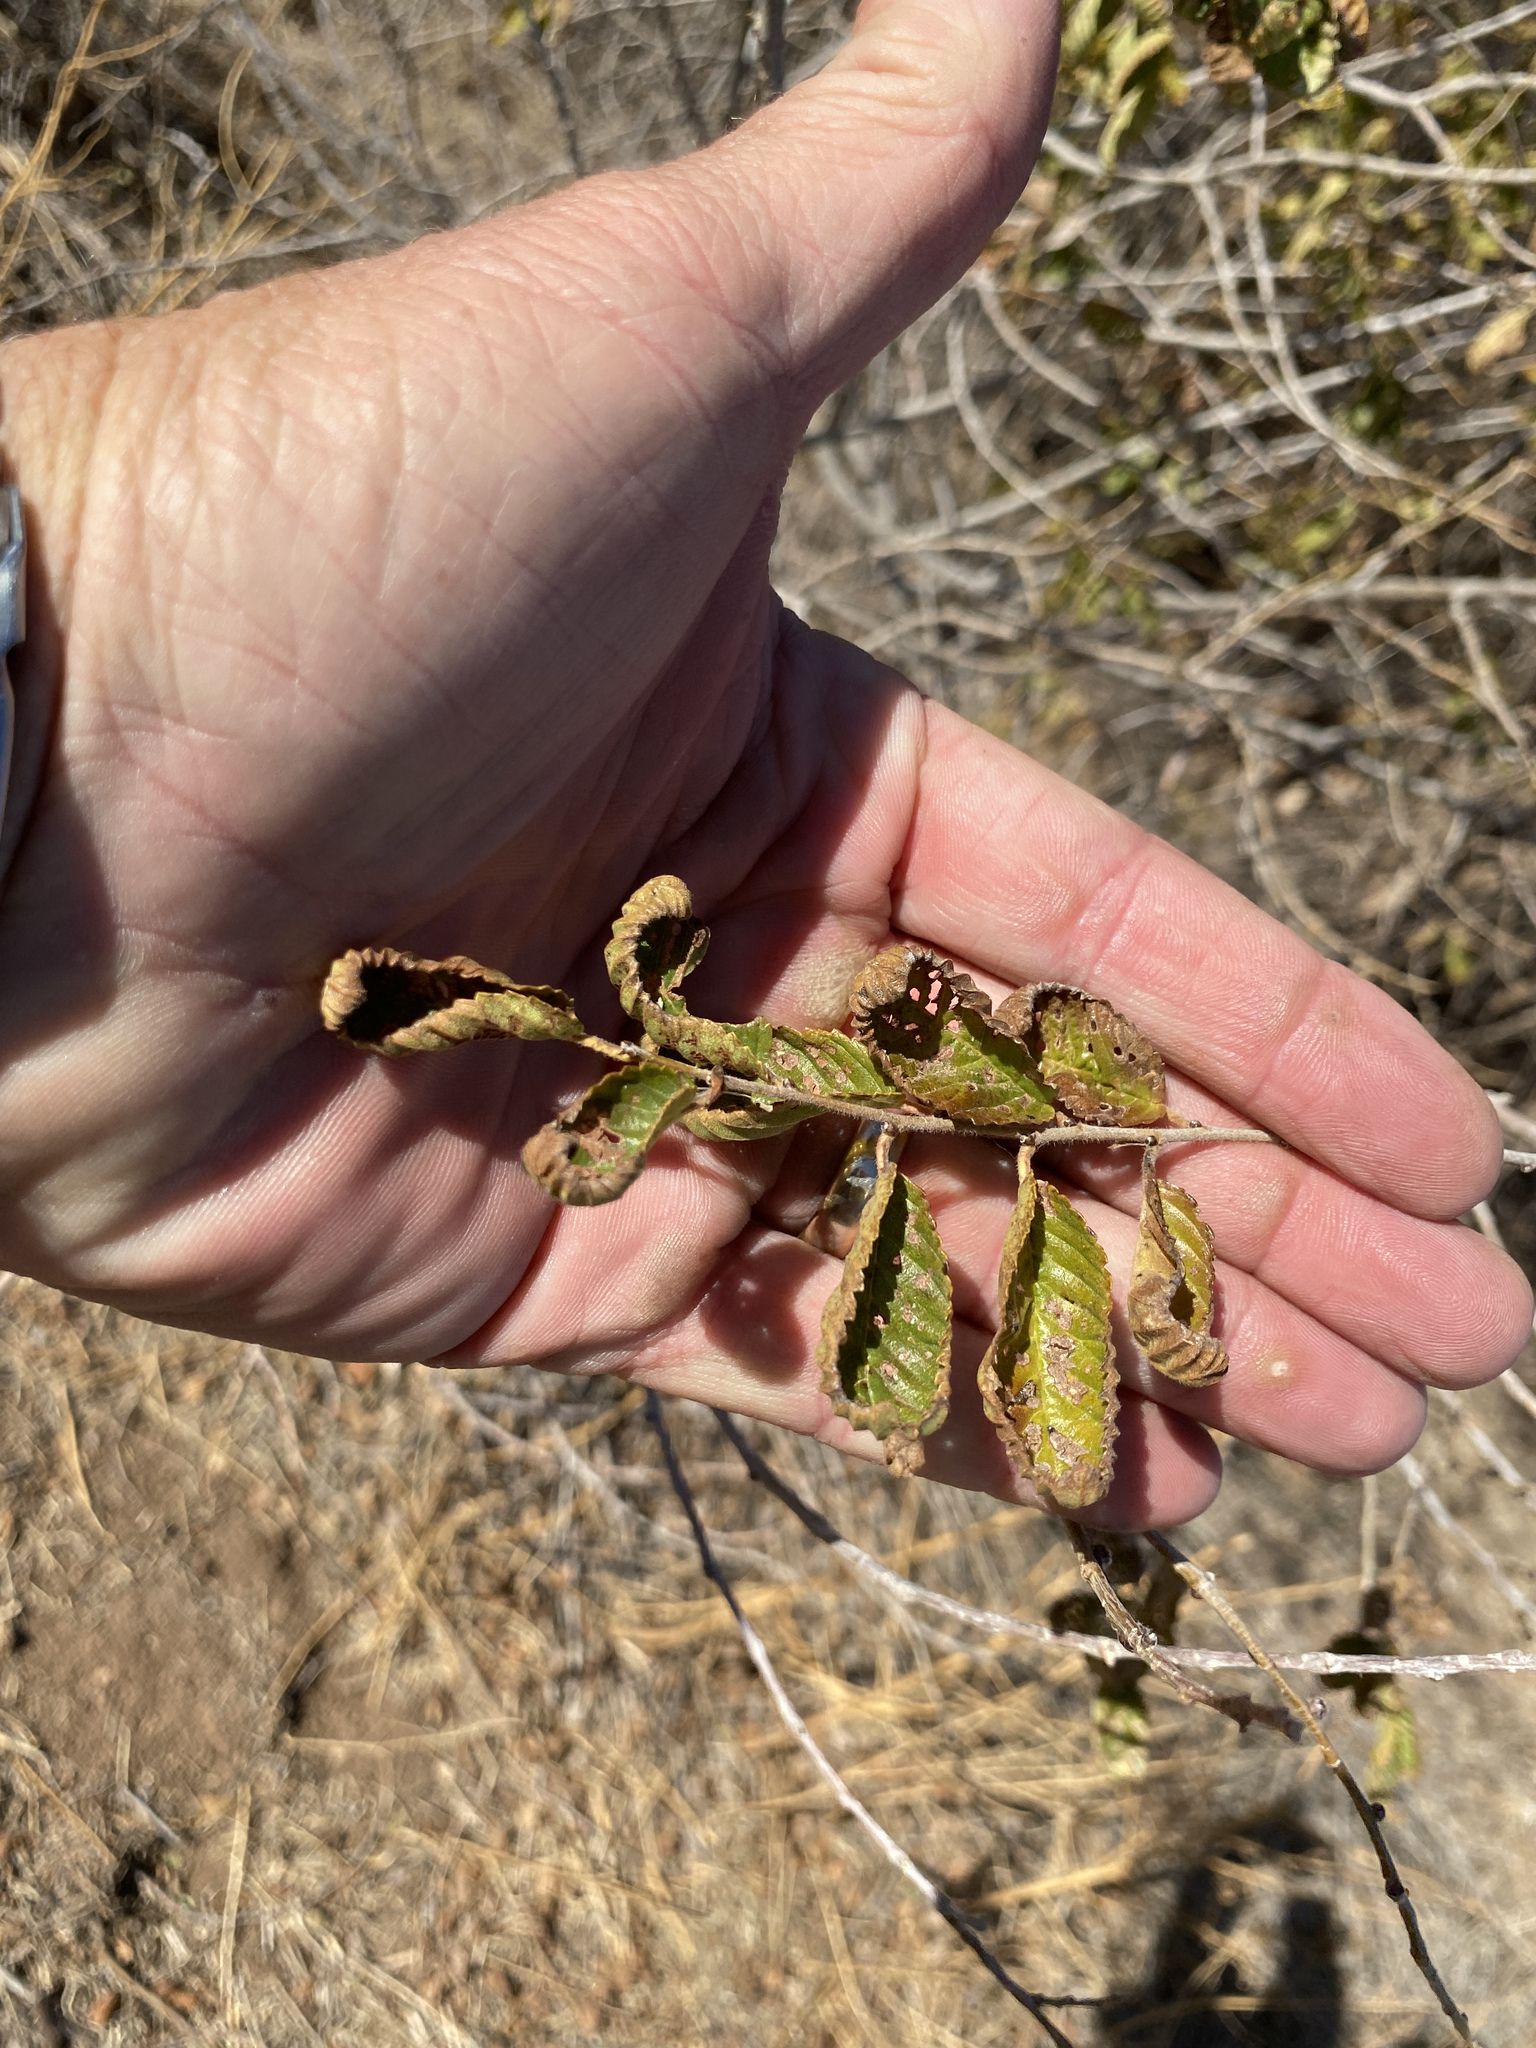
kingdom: Plantae
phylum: Tracheophyta
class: Magnoliopsida
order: Rosales
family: Ulmaceae
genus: Ulmus
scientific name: Ulmus pumila
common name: Siberian elm
